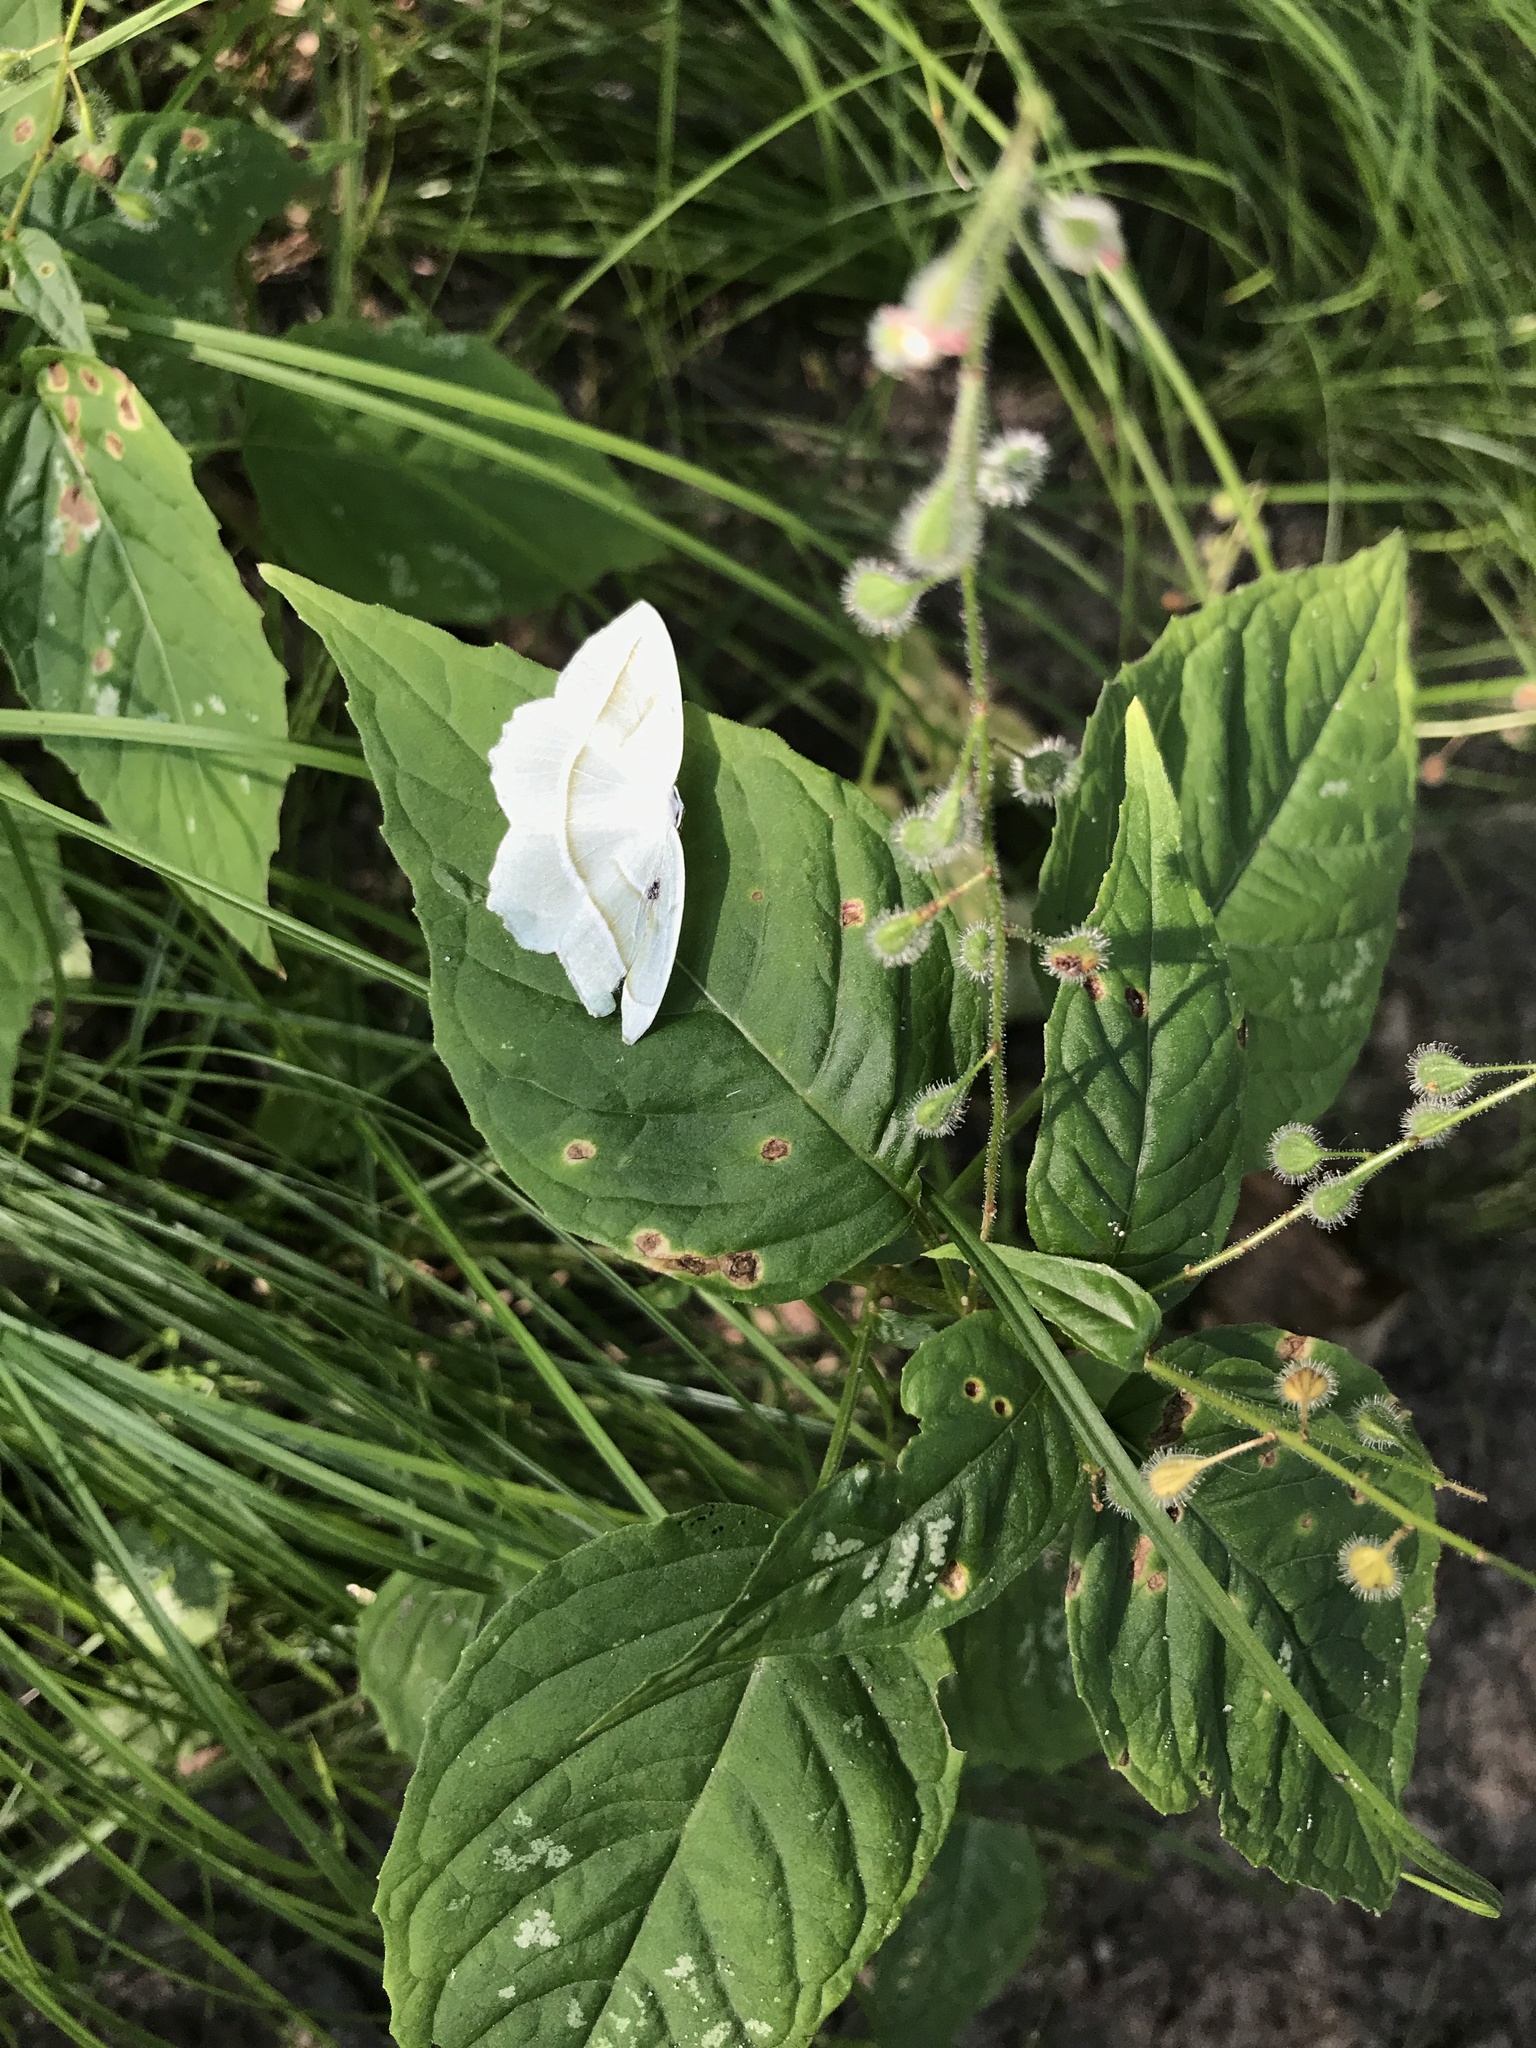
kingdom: Animalia
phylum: Arthropoda
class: Insecta
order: Lepidoptera
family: Geometridae
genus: Campaea
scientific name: Campaea perlata
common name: Fringed looper
